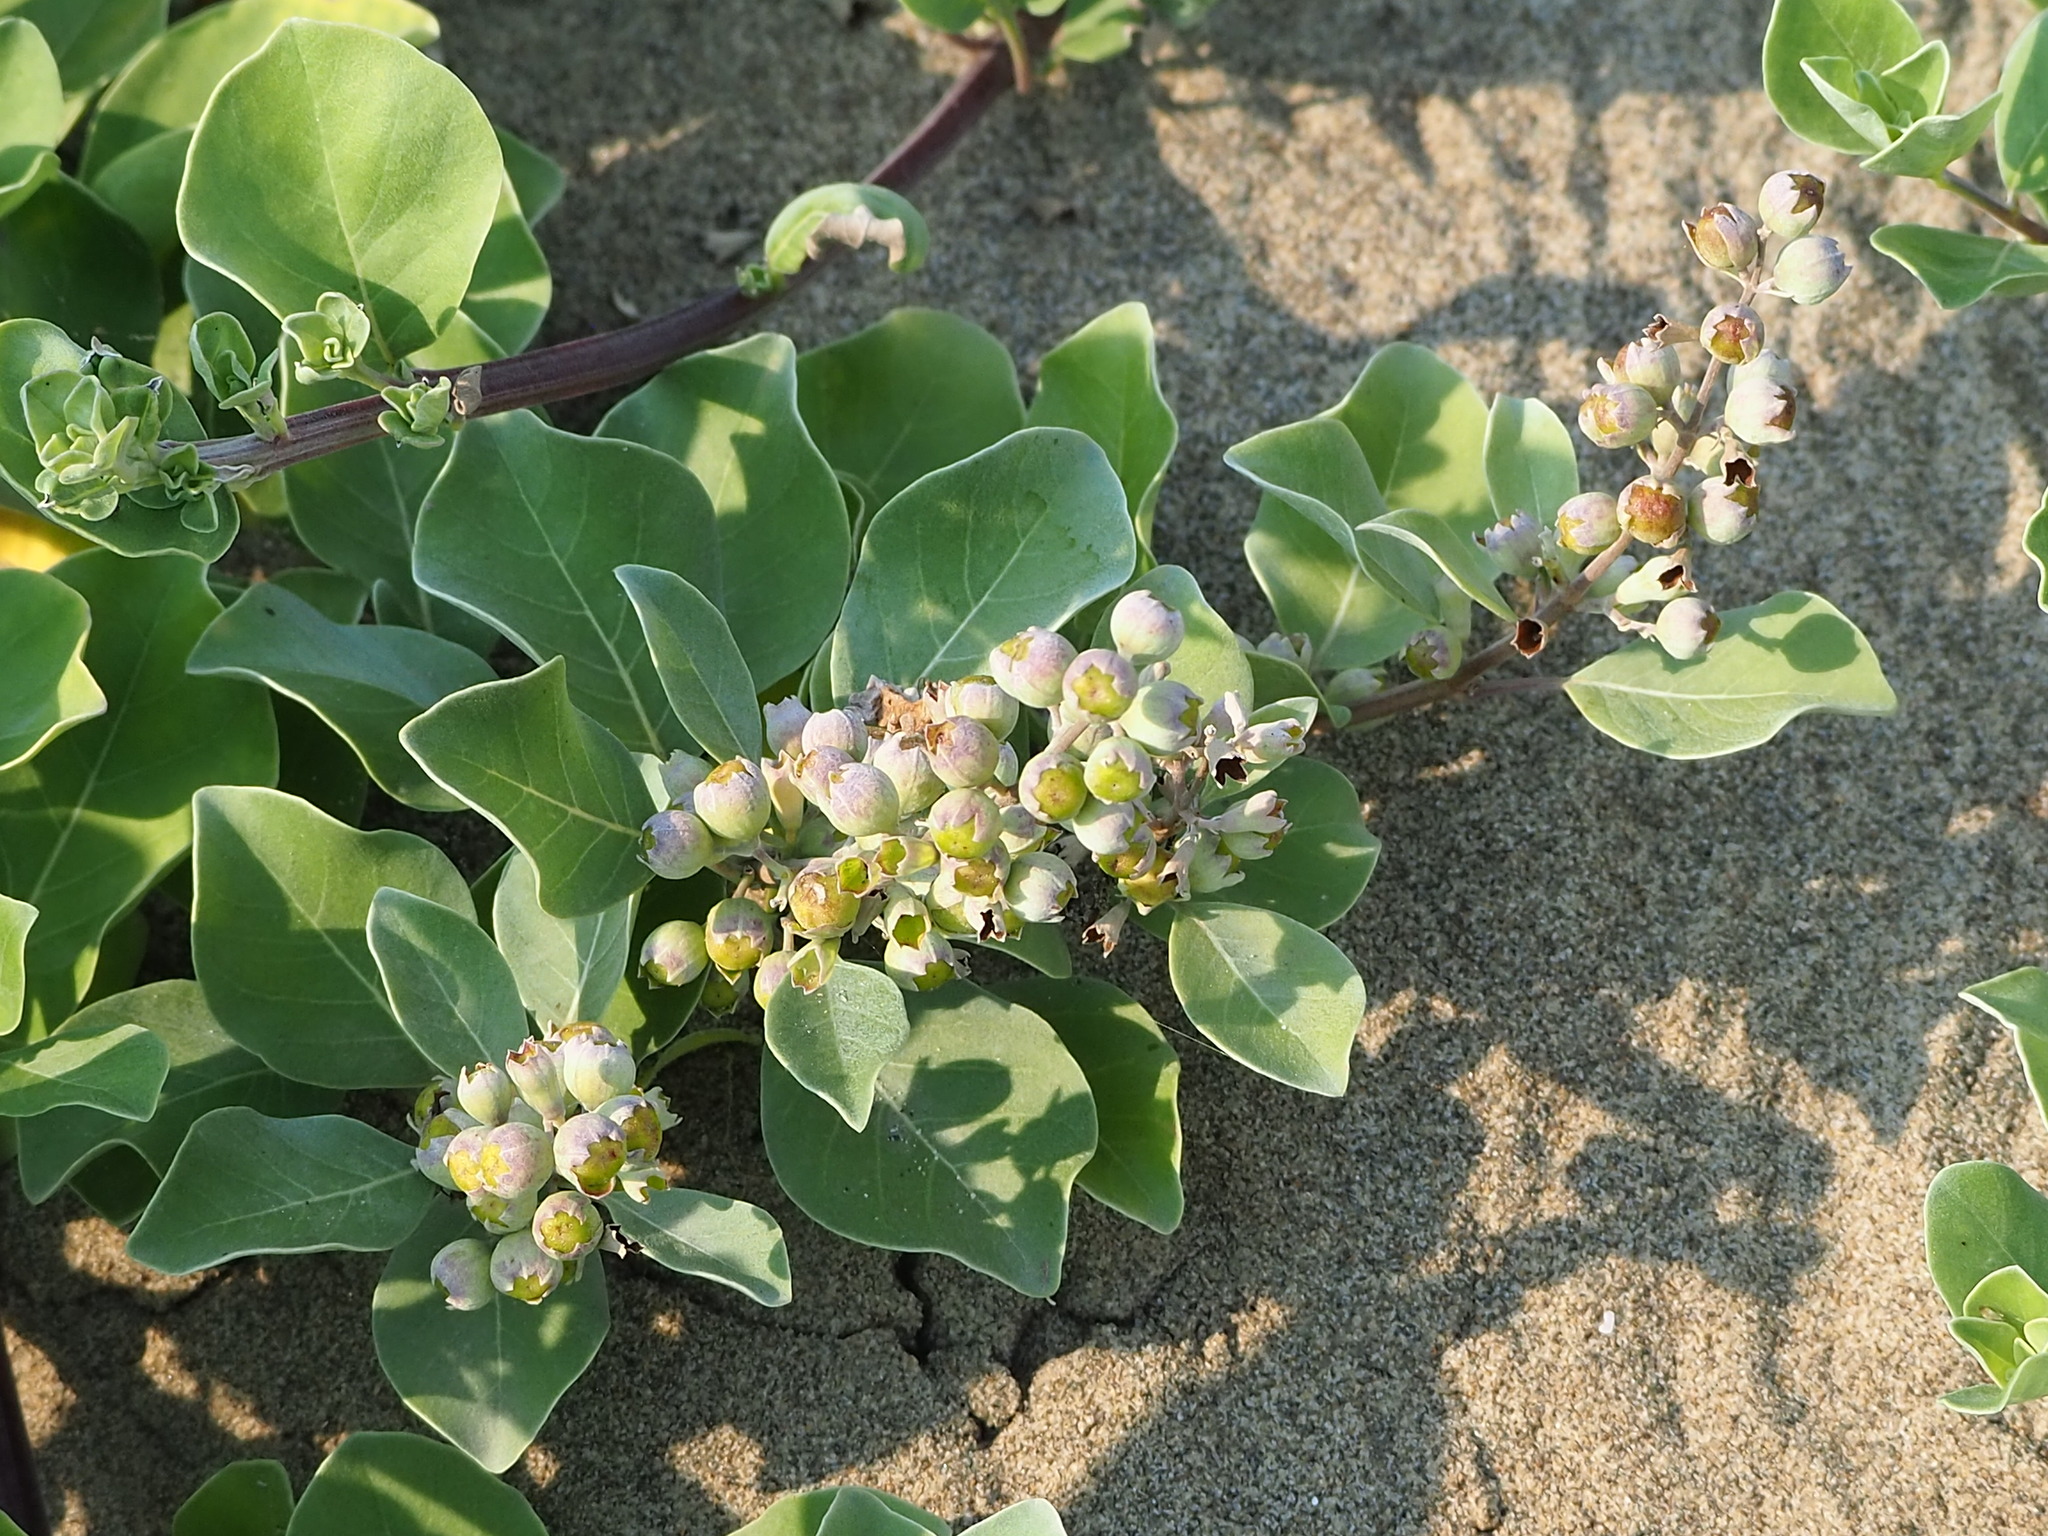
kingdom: Plantae
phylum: Tracheophyta
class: Magnoliopsida
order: Lamiales
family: Lamiaceae
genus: Vitex
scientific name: Vitex rotundifolia
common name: Beach vitex
